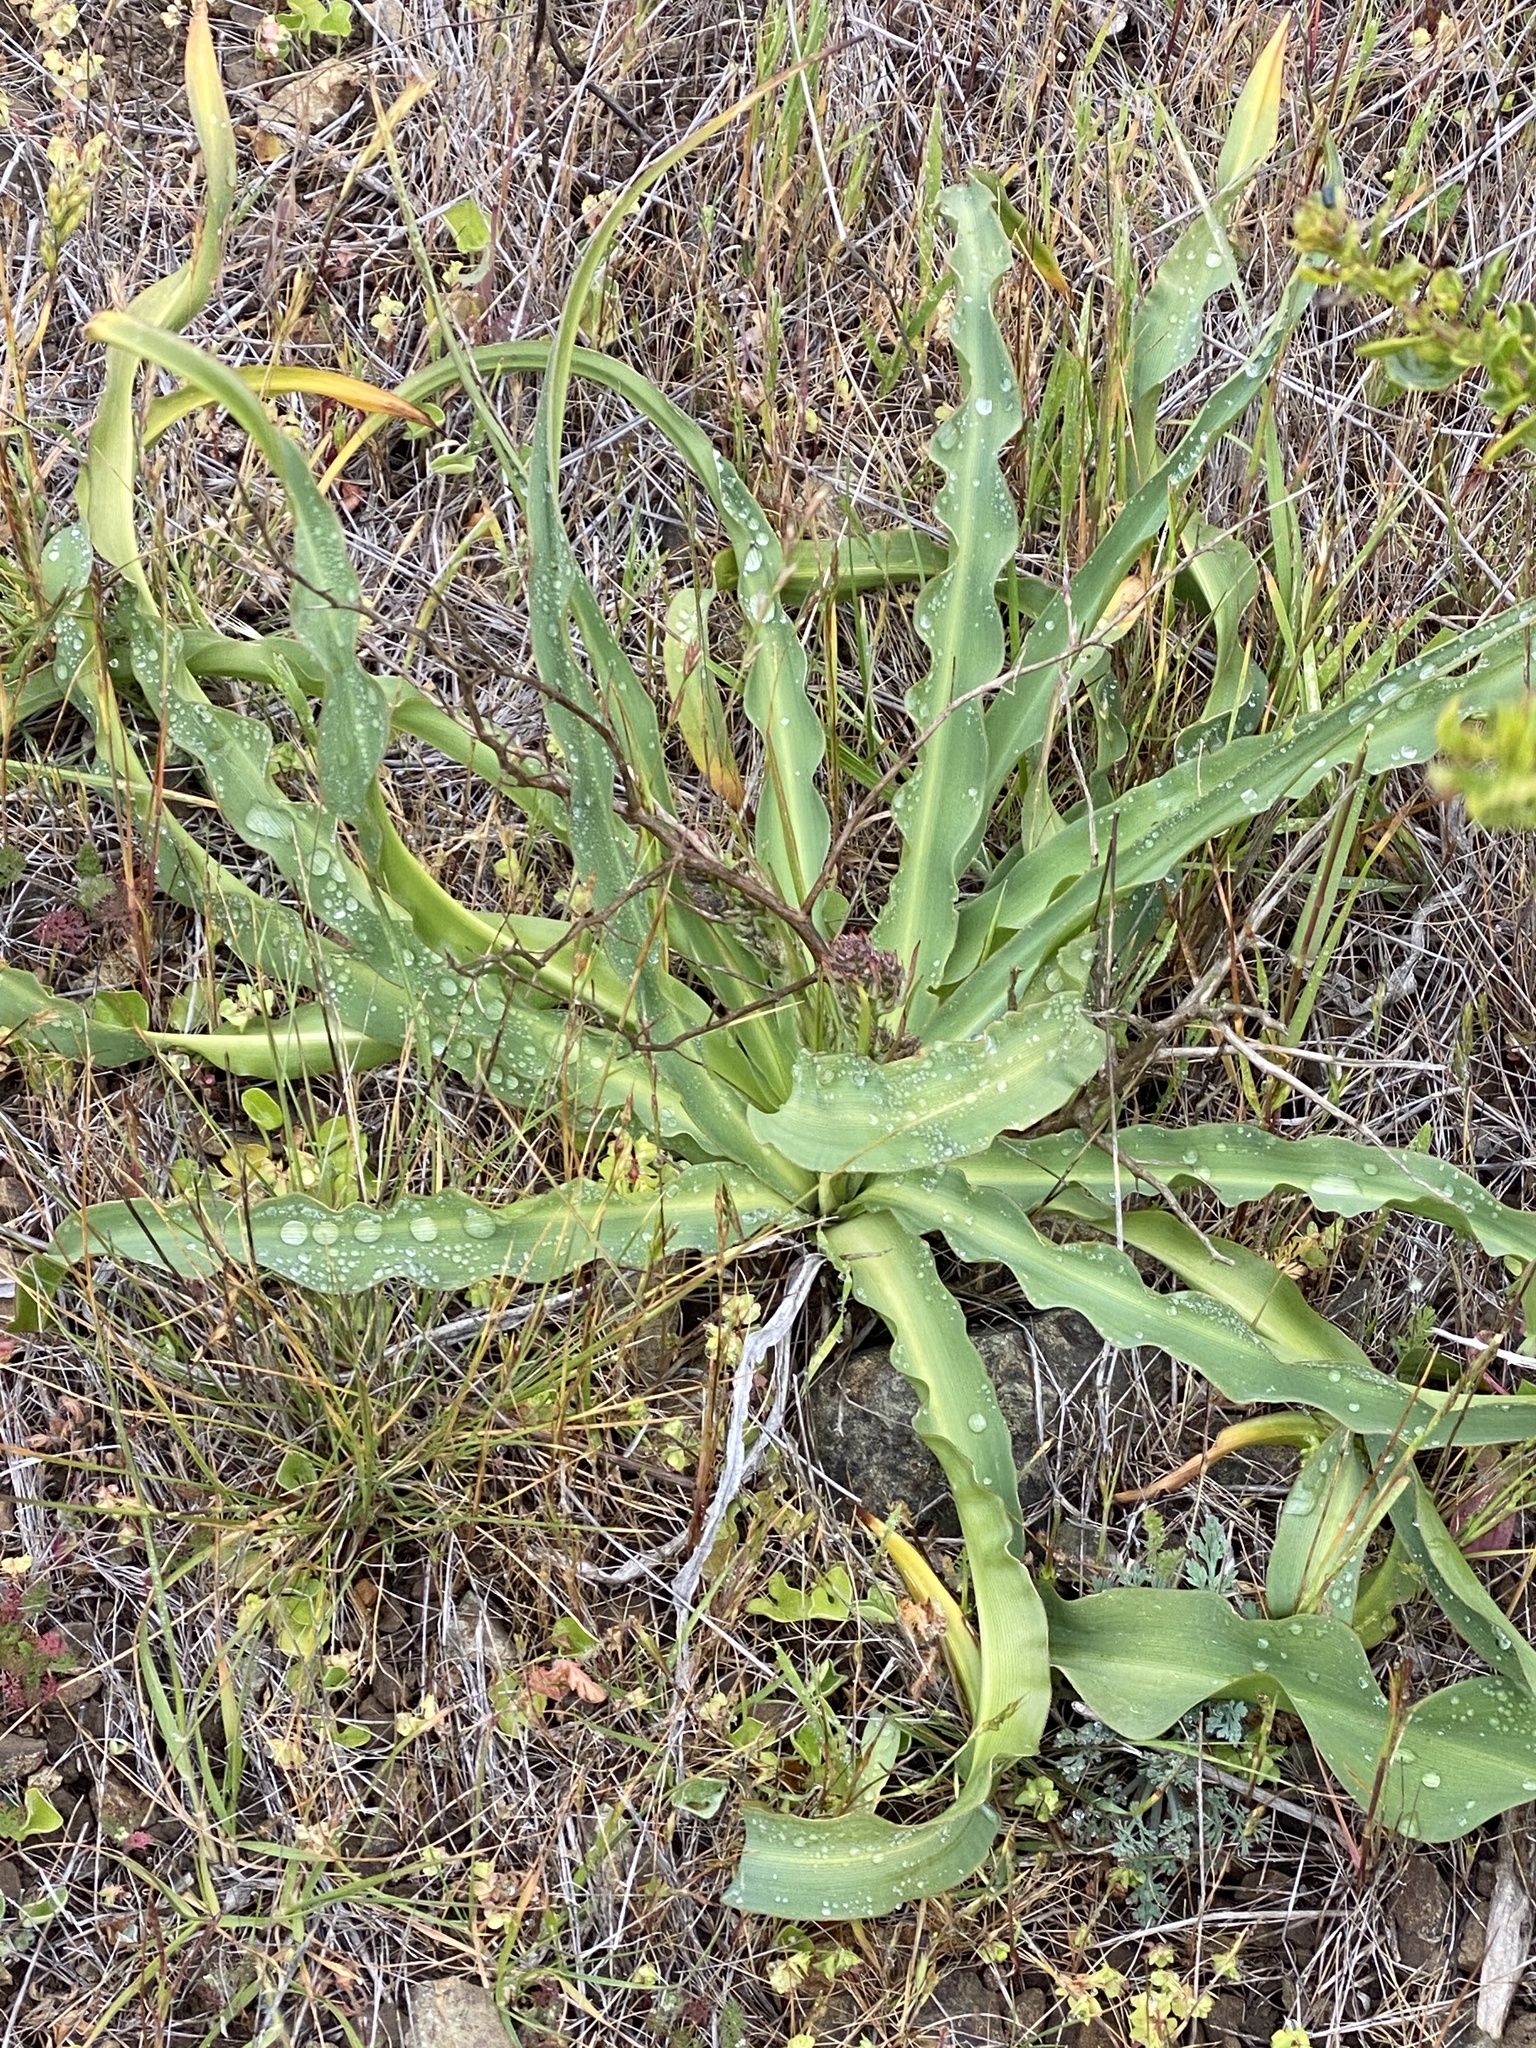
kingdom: Plantae
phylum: Tracheophyta
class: Liliopsida
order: Asparagales
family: Asparagaceae
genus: Chlorogalum
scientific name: Chlorogalum pomeridianum
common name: Amole
